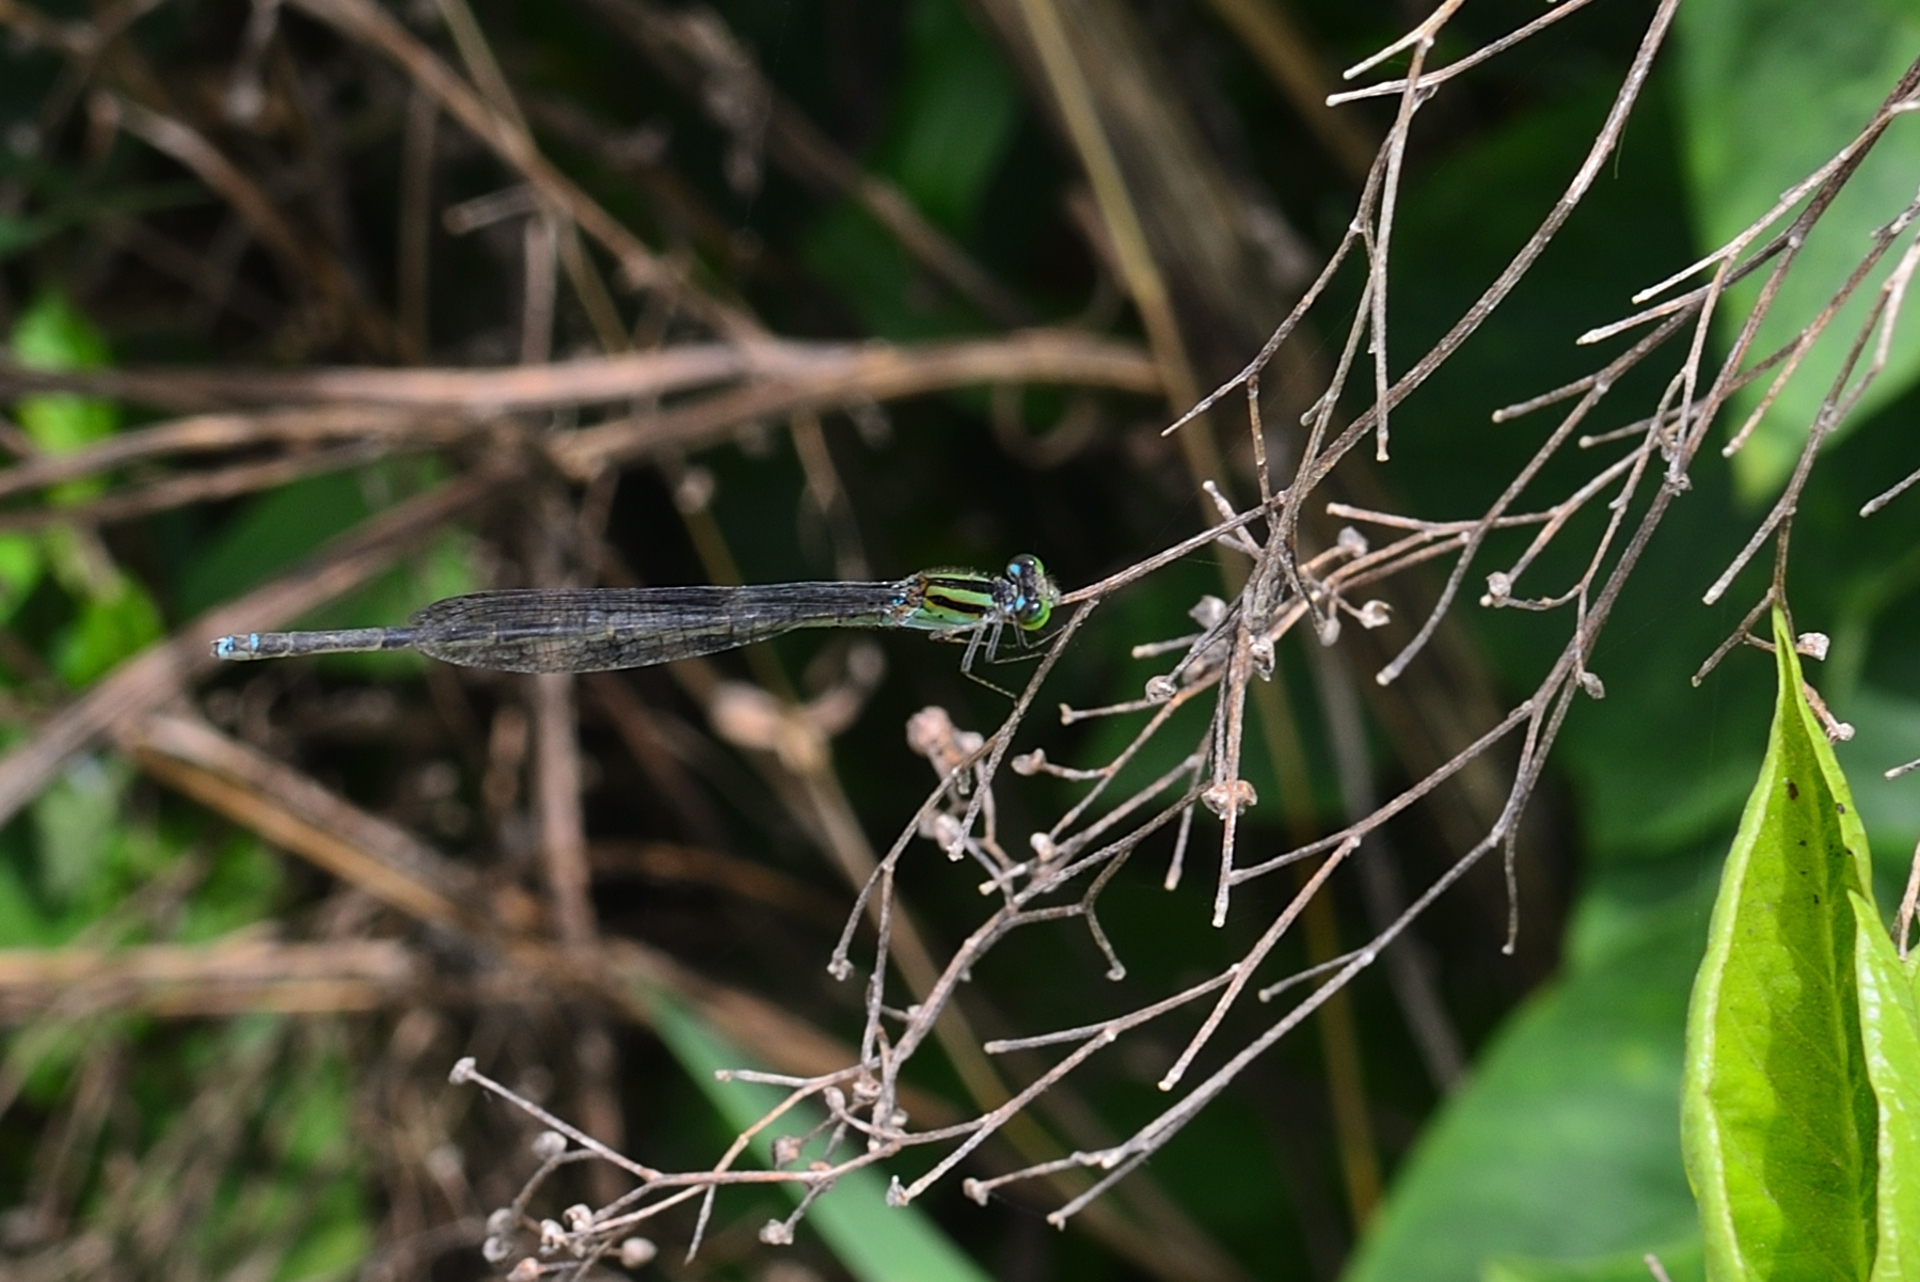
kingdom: Animalia
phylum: Arthropoda
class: Insecta
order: Odonata
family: Coenagrionidae
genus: Pseudagrion
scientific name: Pseudagrion malabaricum
